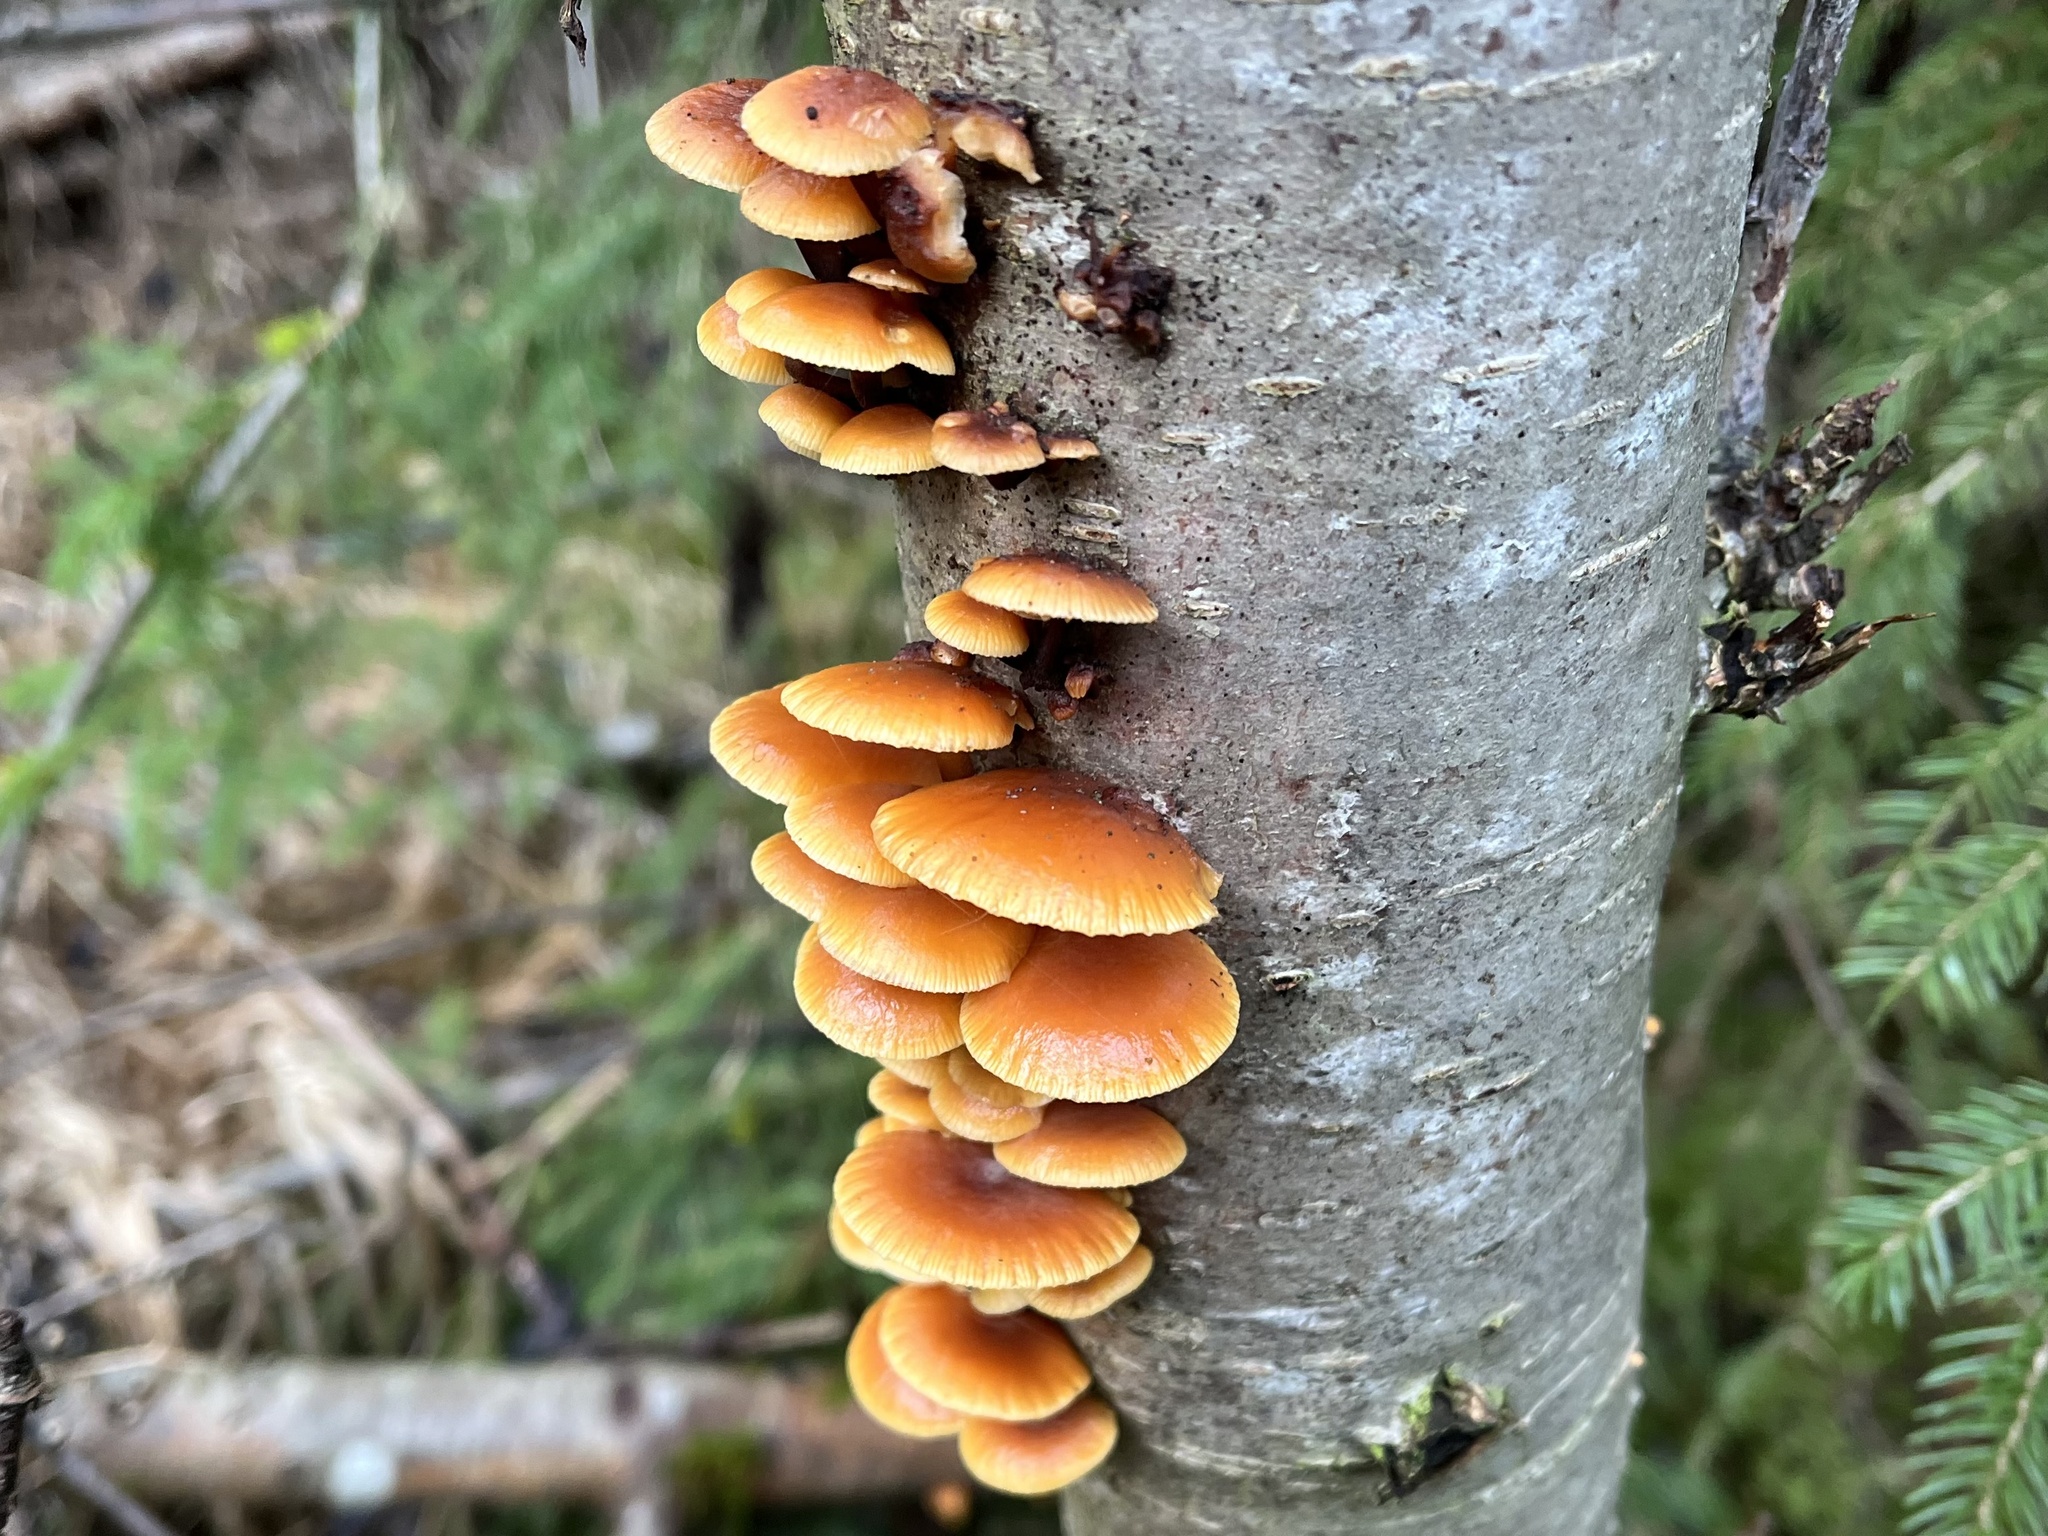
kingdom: Fungi
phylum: Basidiomycota
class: Agaricomycetes
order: Agaricales
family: Physalacriaceae
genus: Flammulina
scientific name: Flammulina
